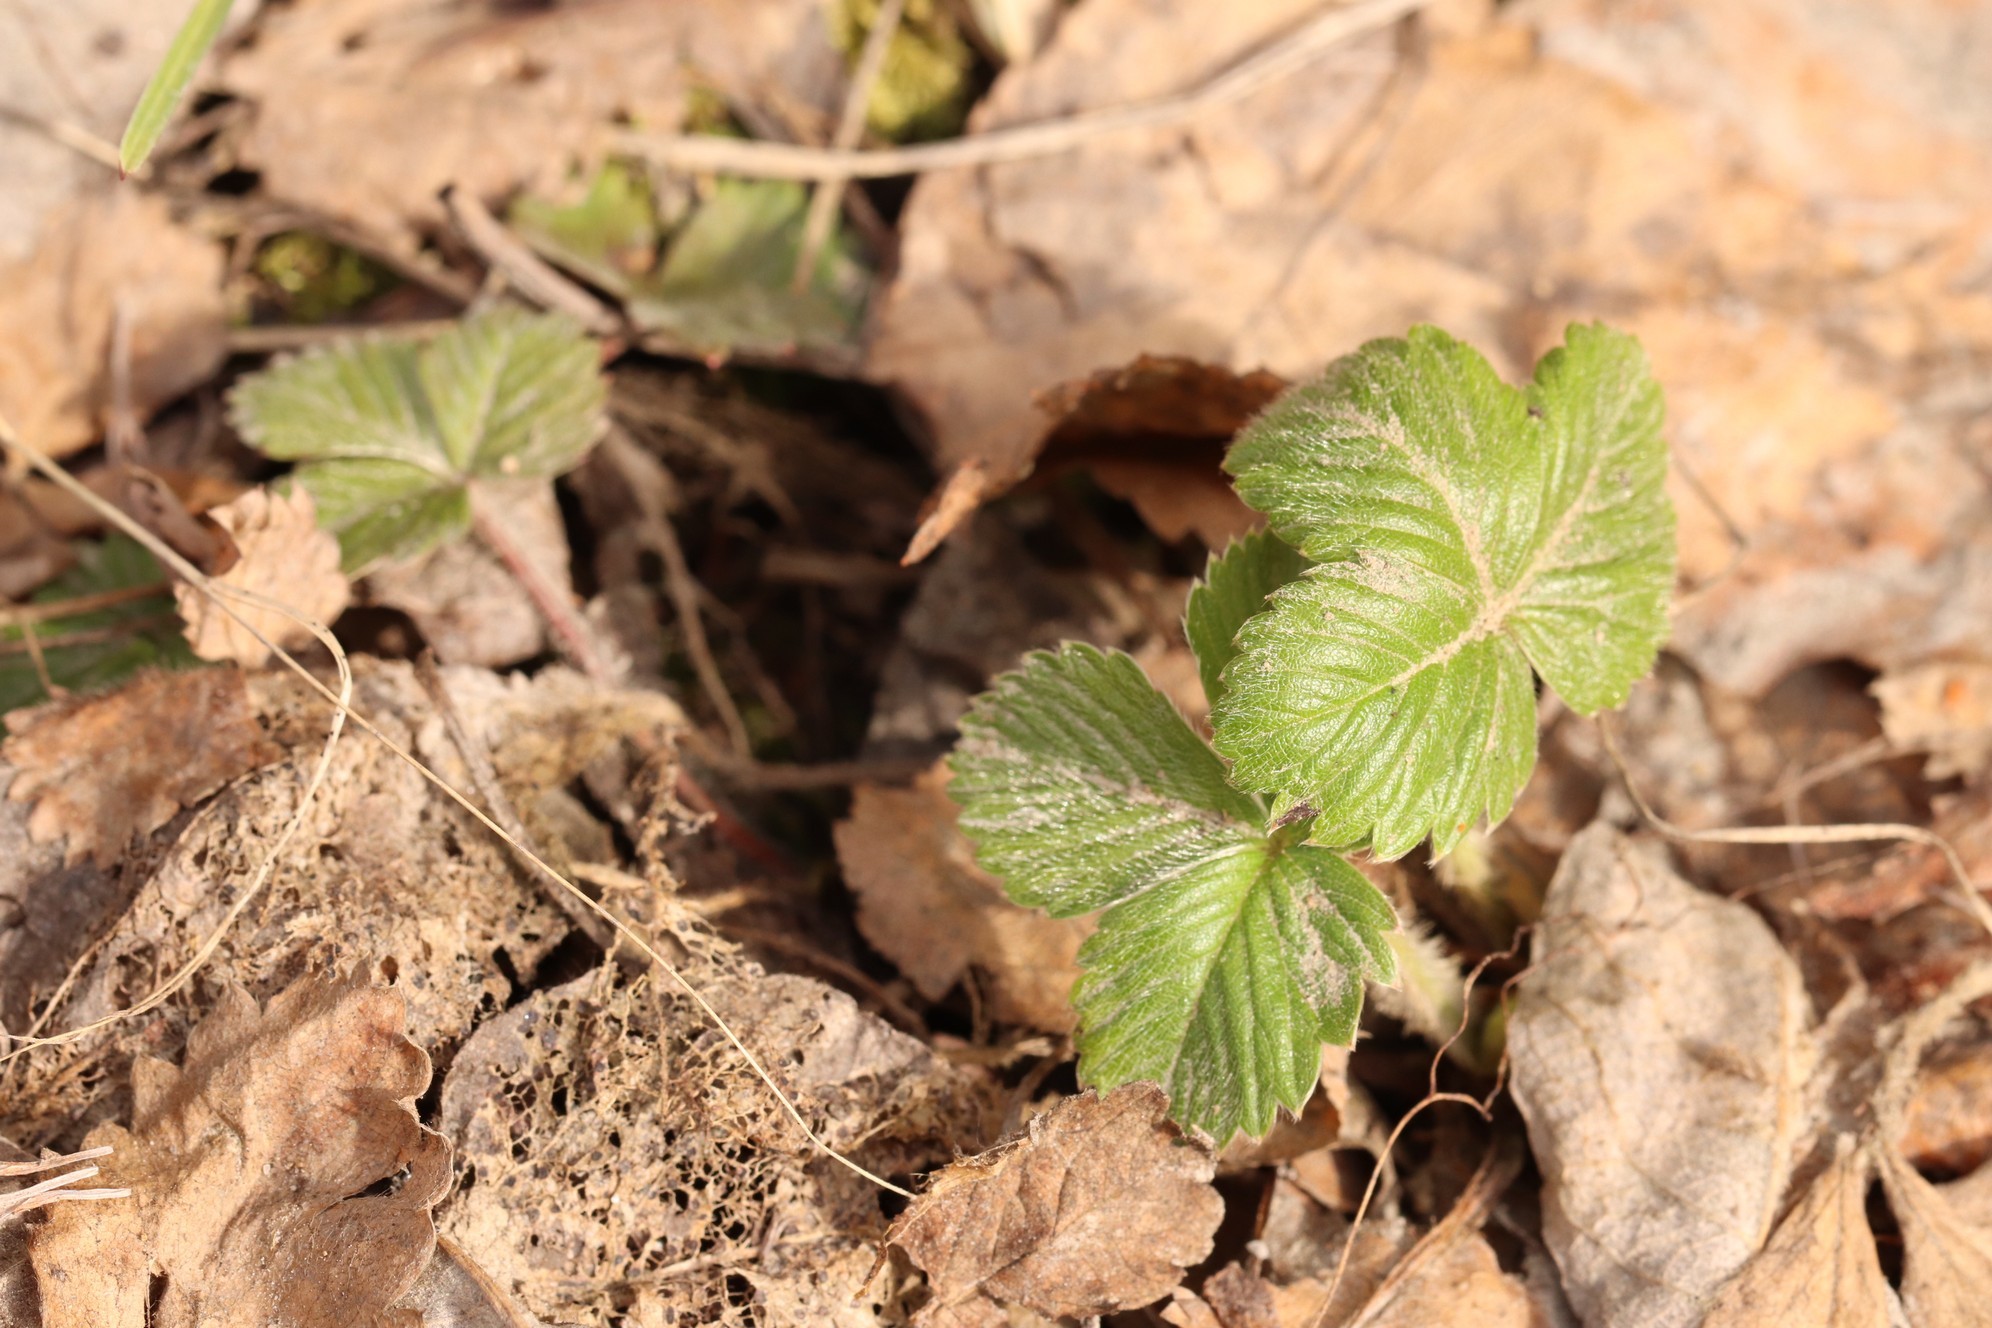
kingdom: Plantae
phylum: Tracheophyta
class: Magnoliopsida
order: Rosales
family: Rosaceae
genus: Fragaria
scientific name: Fragaria vesca
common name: Wild strawberry
